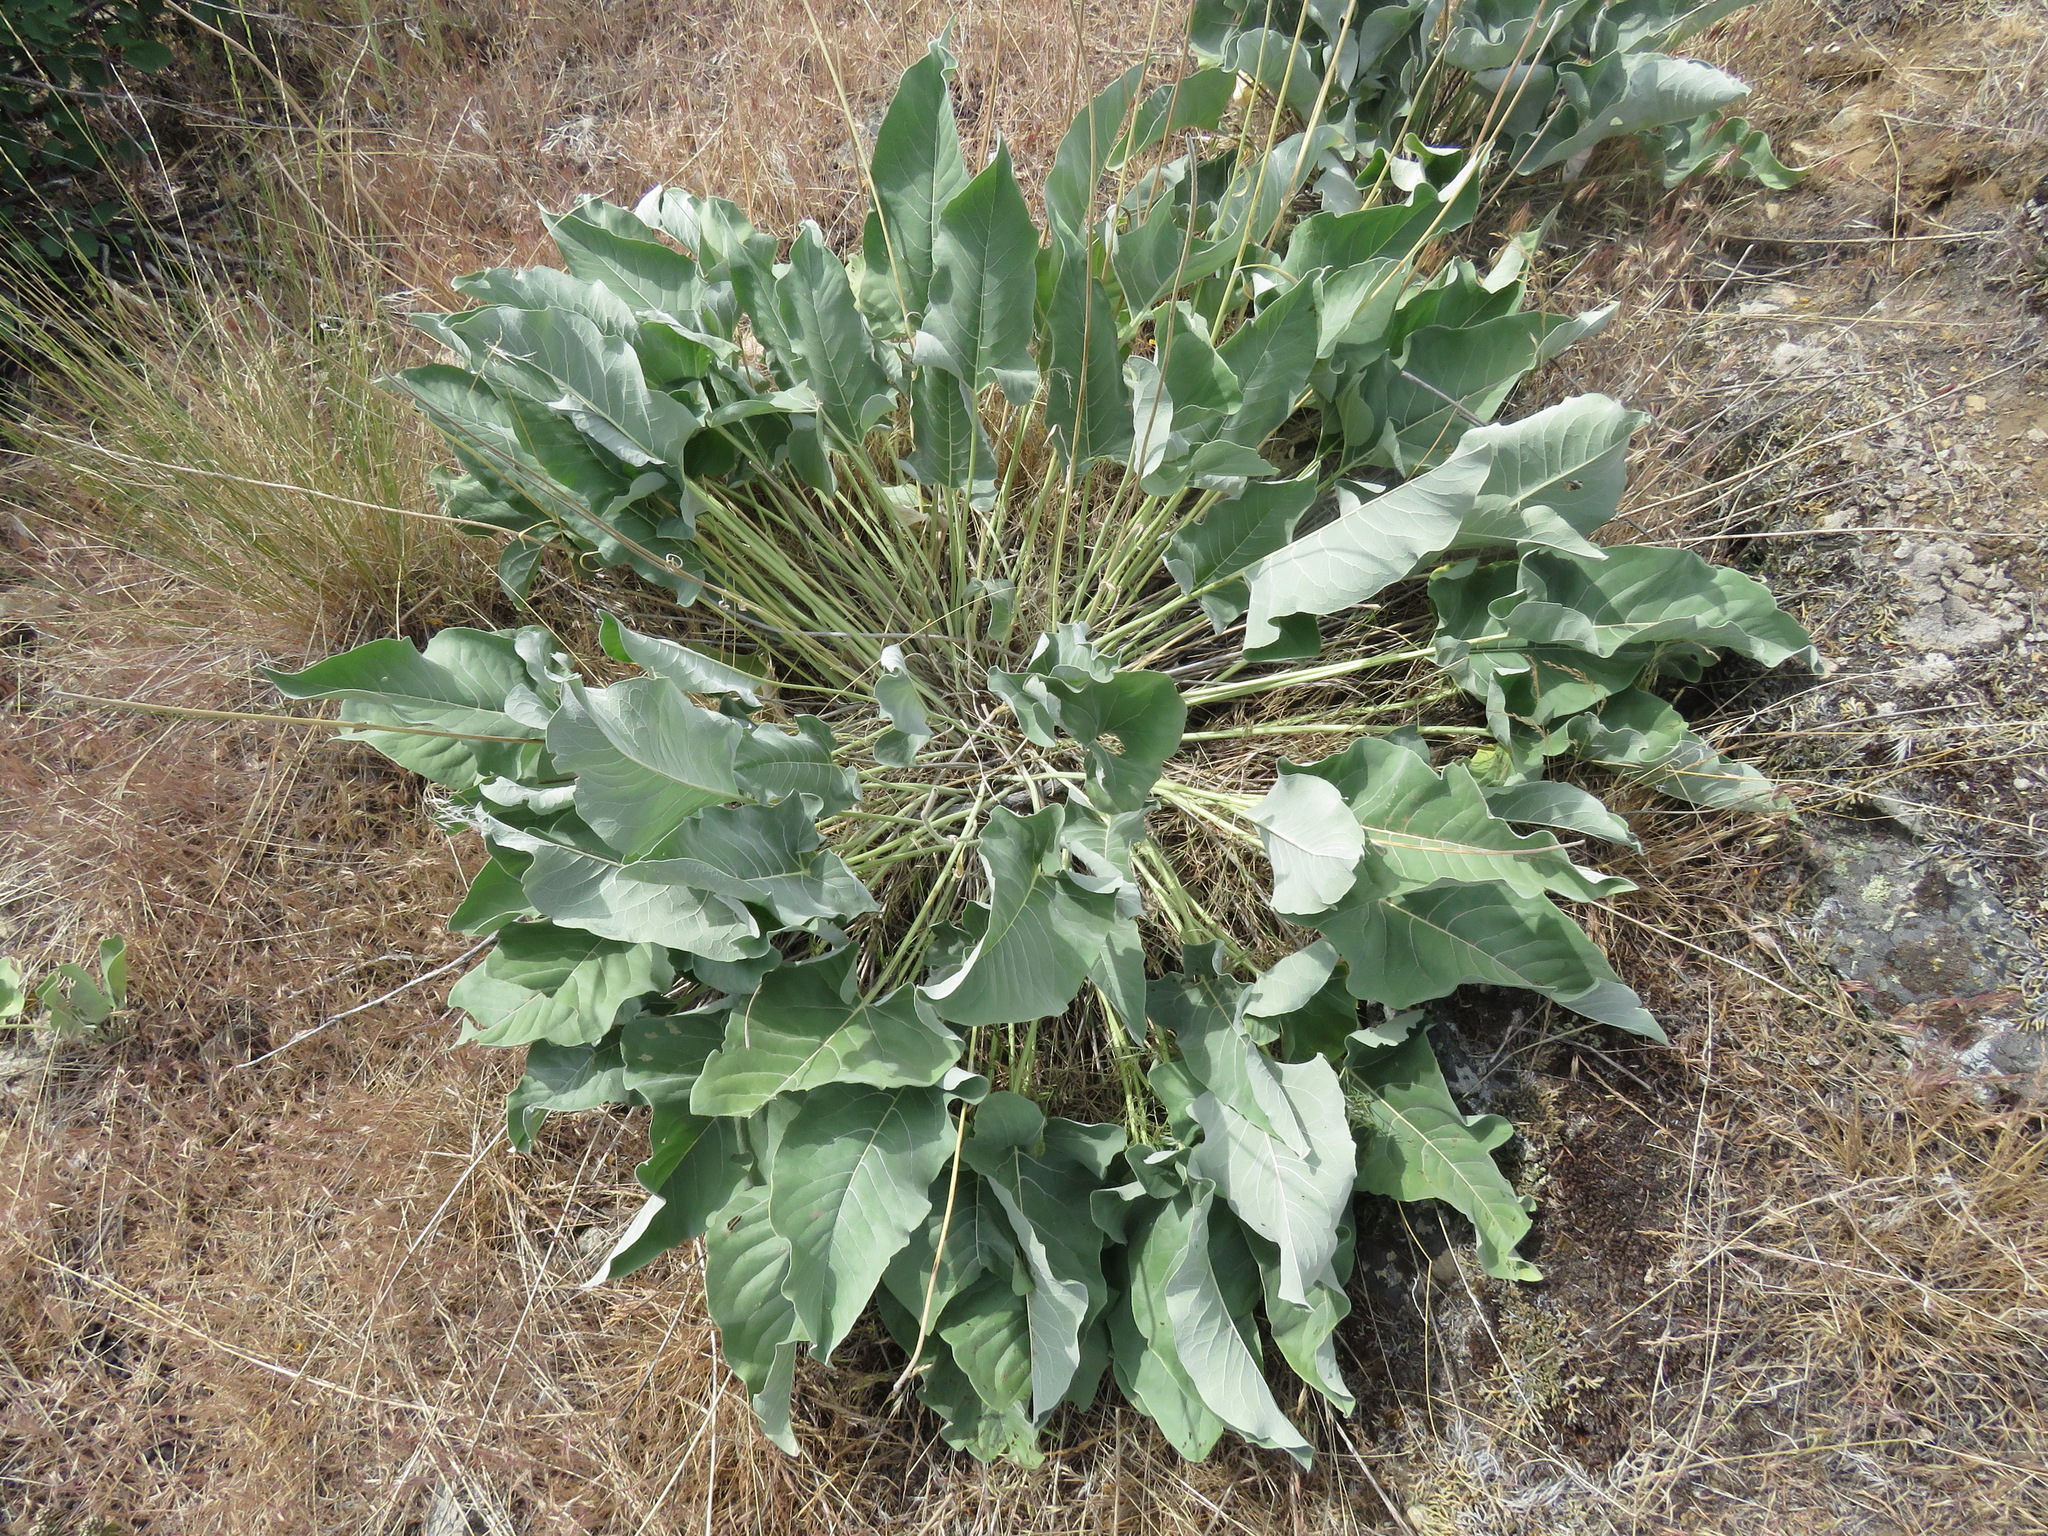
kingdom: Plantae
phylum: Tracheophyta
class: Magnoliopsida
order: Asterales
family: Asteraceae
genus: Wyethia
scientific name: Wyethia sagittata
